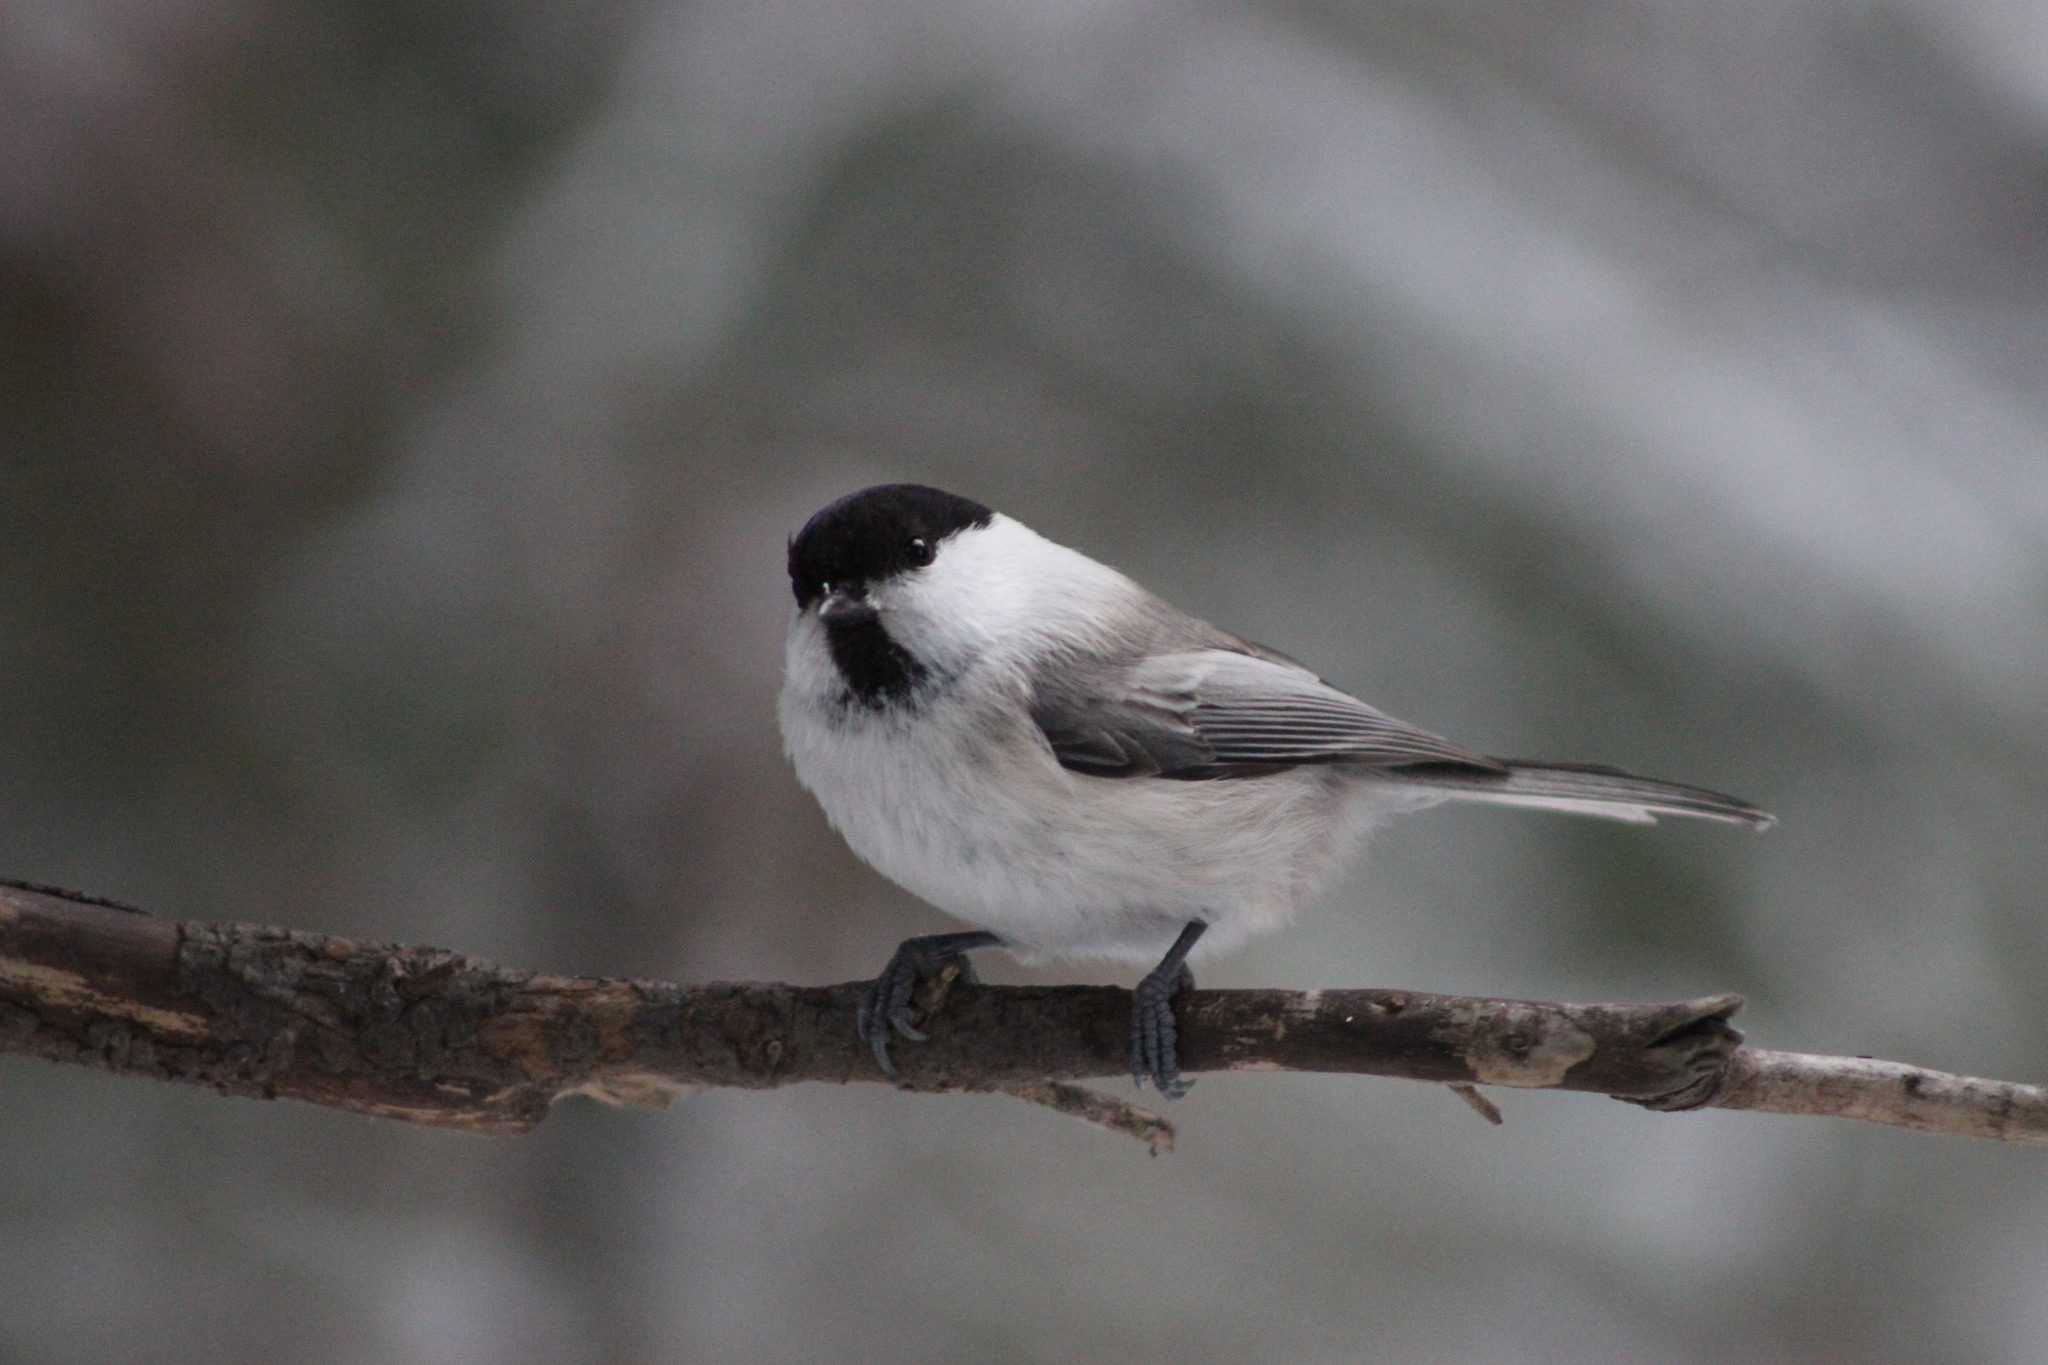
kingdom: Animalia
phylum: Chordata
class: Aves
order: Passeriformes
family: Paridae
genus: Poecile
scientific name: Poecile montanus
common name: Willow tit
